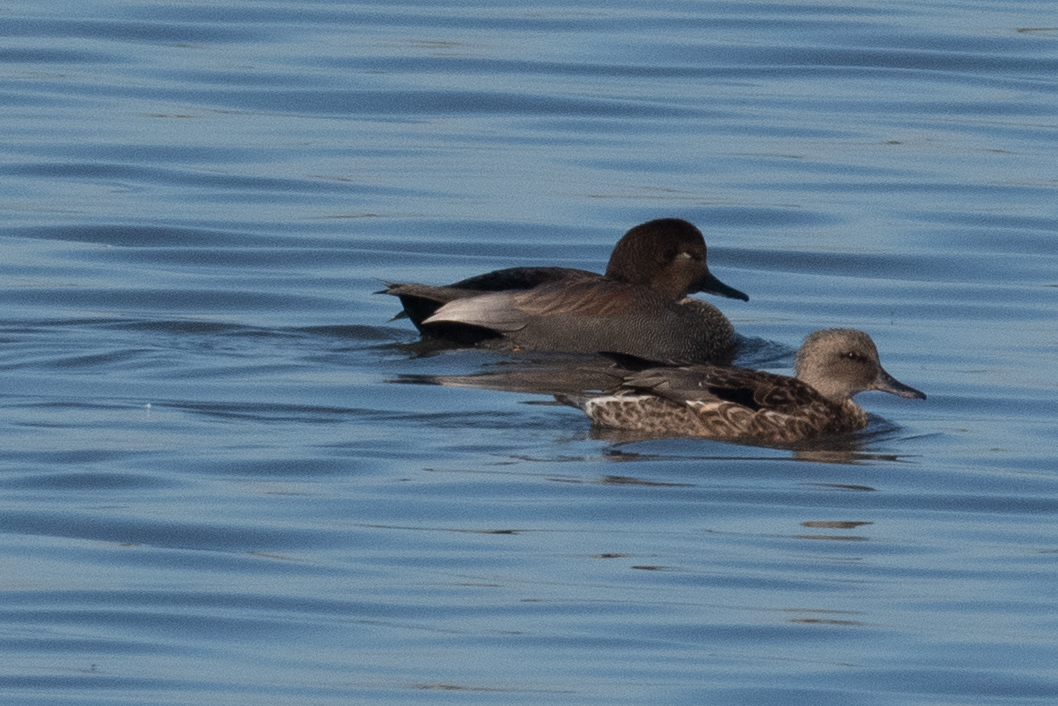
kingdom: Animalia
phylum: Chordata
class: Aves
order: Anseriformes
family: Anatidae
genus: Mareca
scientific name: Mareca strepera
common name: Gadwall
